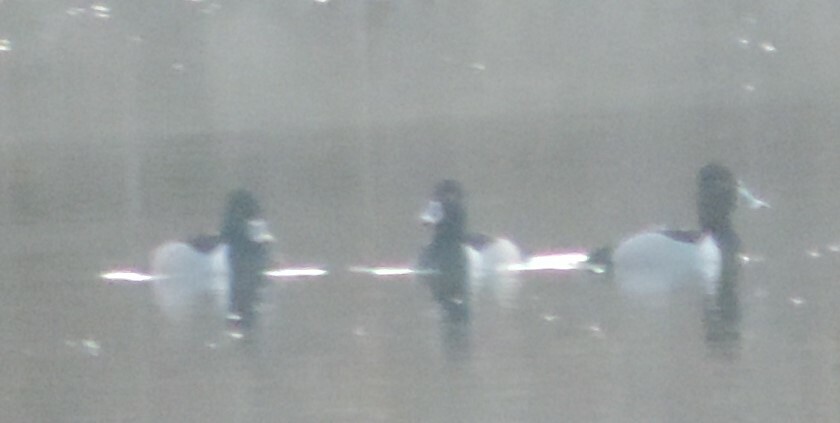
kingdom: Animalia
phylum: Chordata
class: Aves
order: Anseriformes
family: Anatidae
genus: Aythya
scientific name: Aythya collaris
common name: Ring-necked duck
